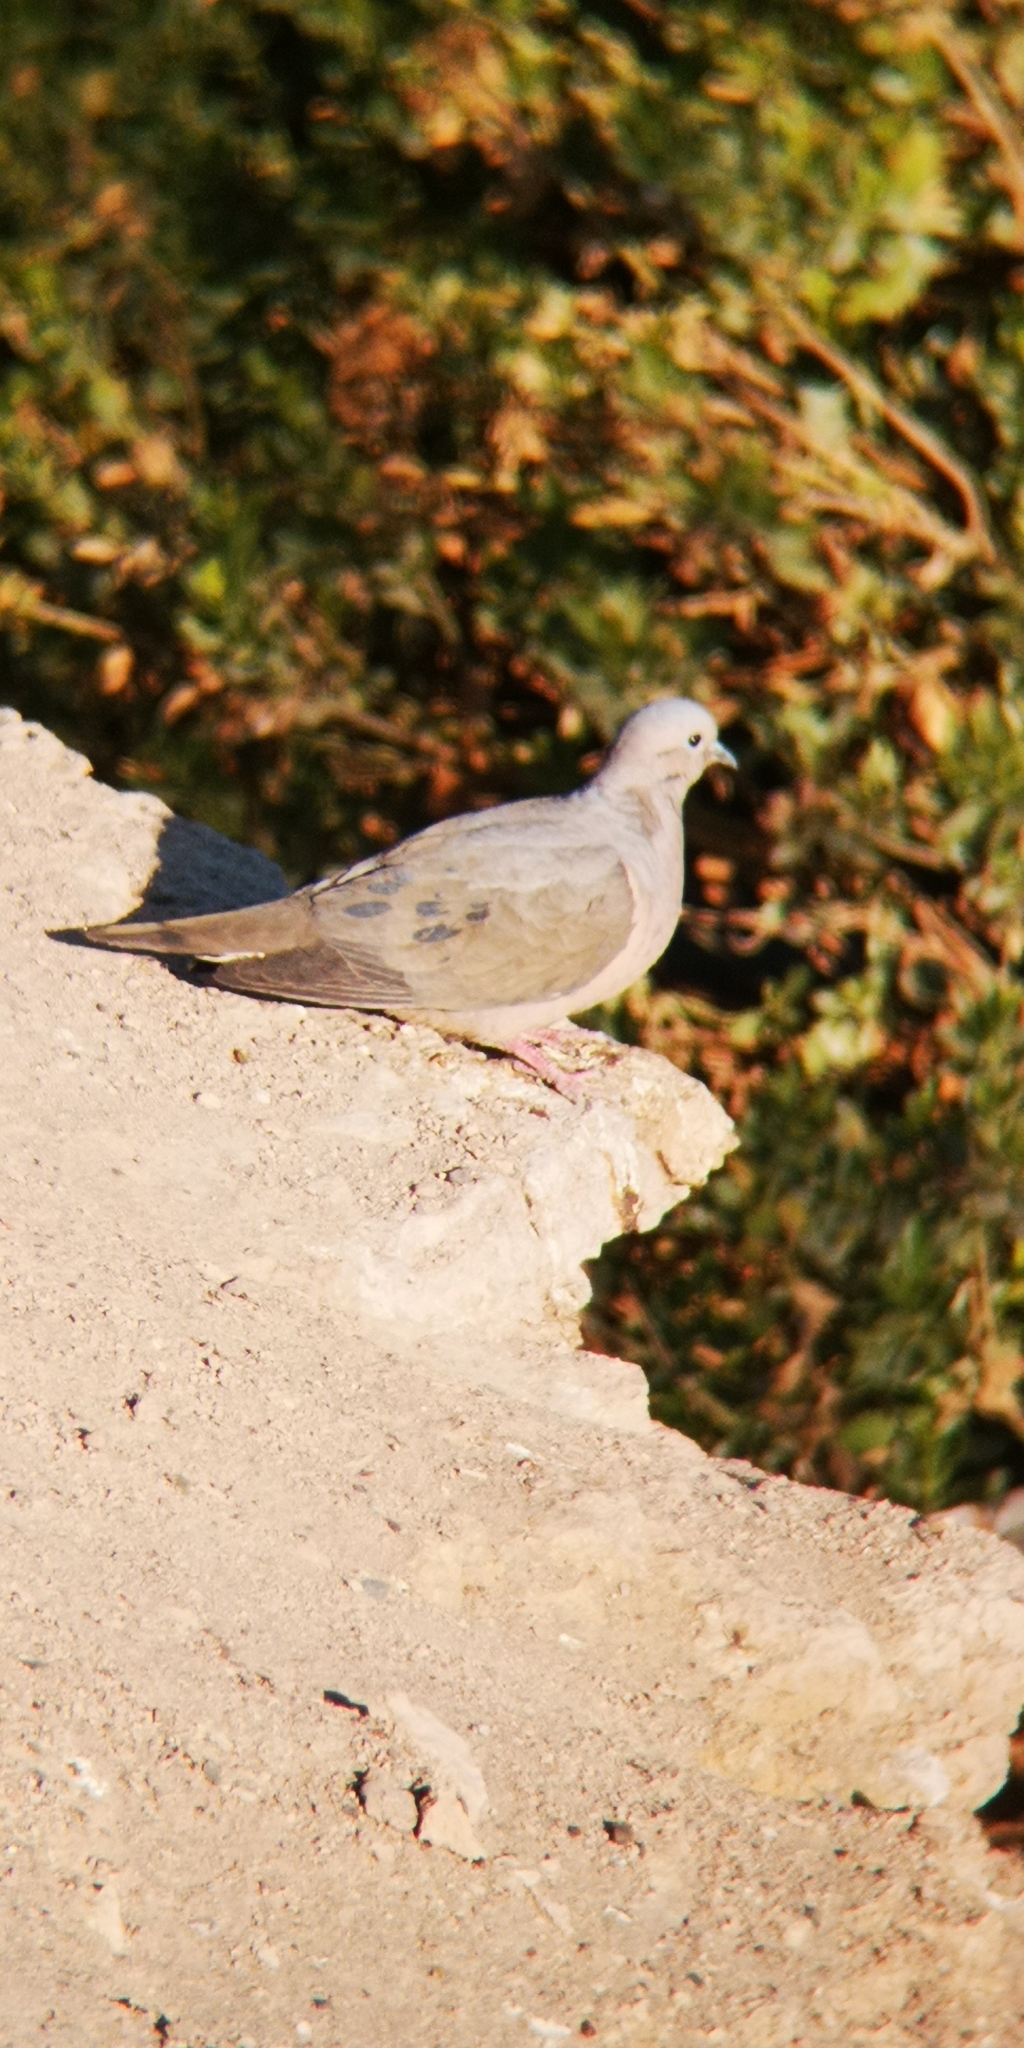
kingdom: Animalia
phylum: Chordata
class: Aves
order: Columbiformes
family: Columbidae
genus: Zenaida
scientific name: Zenaida auriculata
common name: Eared dove
